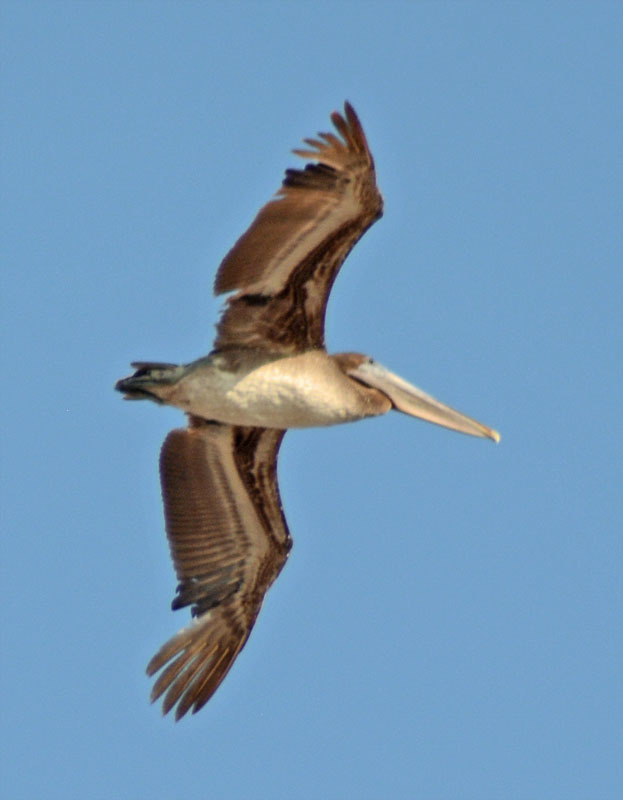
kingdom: Animalia
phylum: Chordata
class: Aves
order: Pelecaniformes
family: Pelecanidae
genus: Pelecanus
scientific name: Pelecanus occidentalis
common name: Brown pelican
